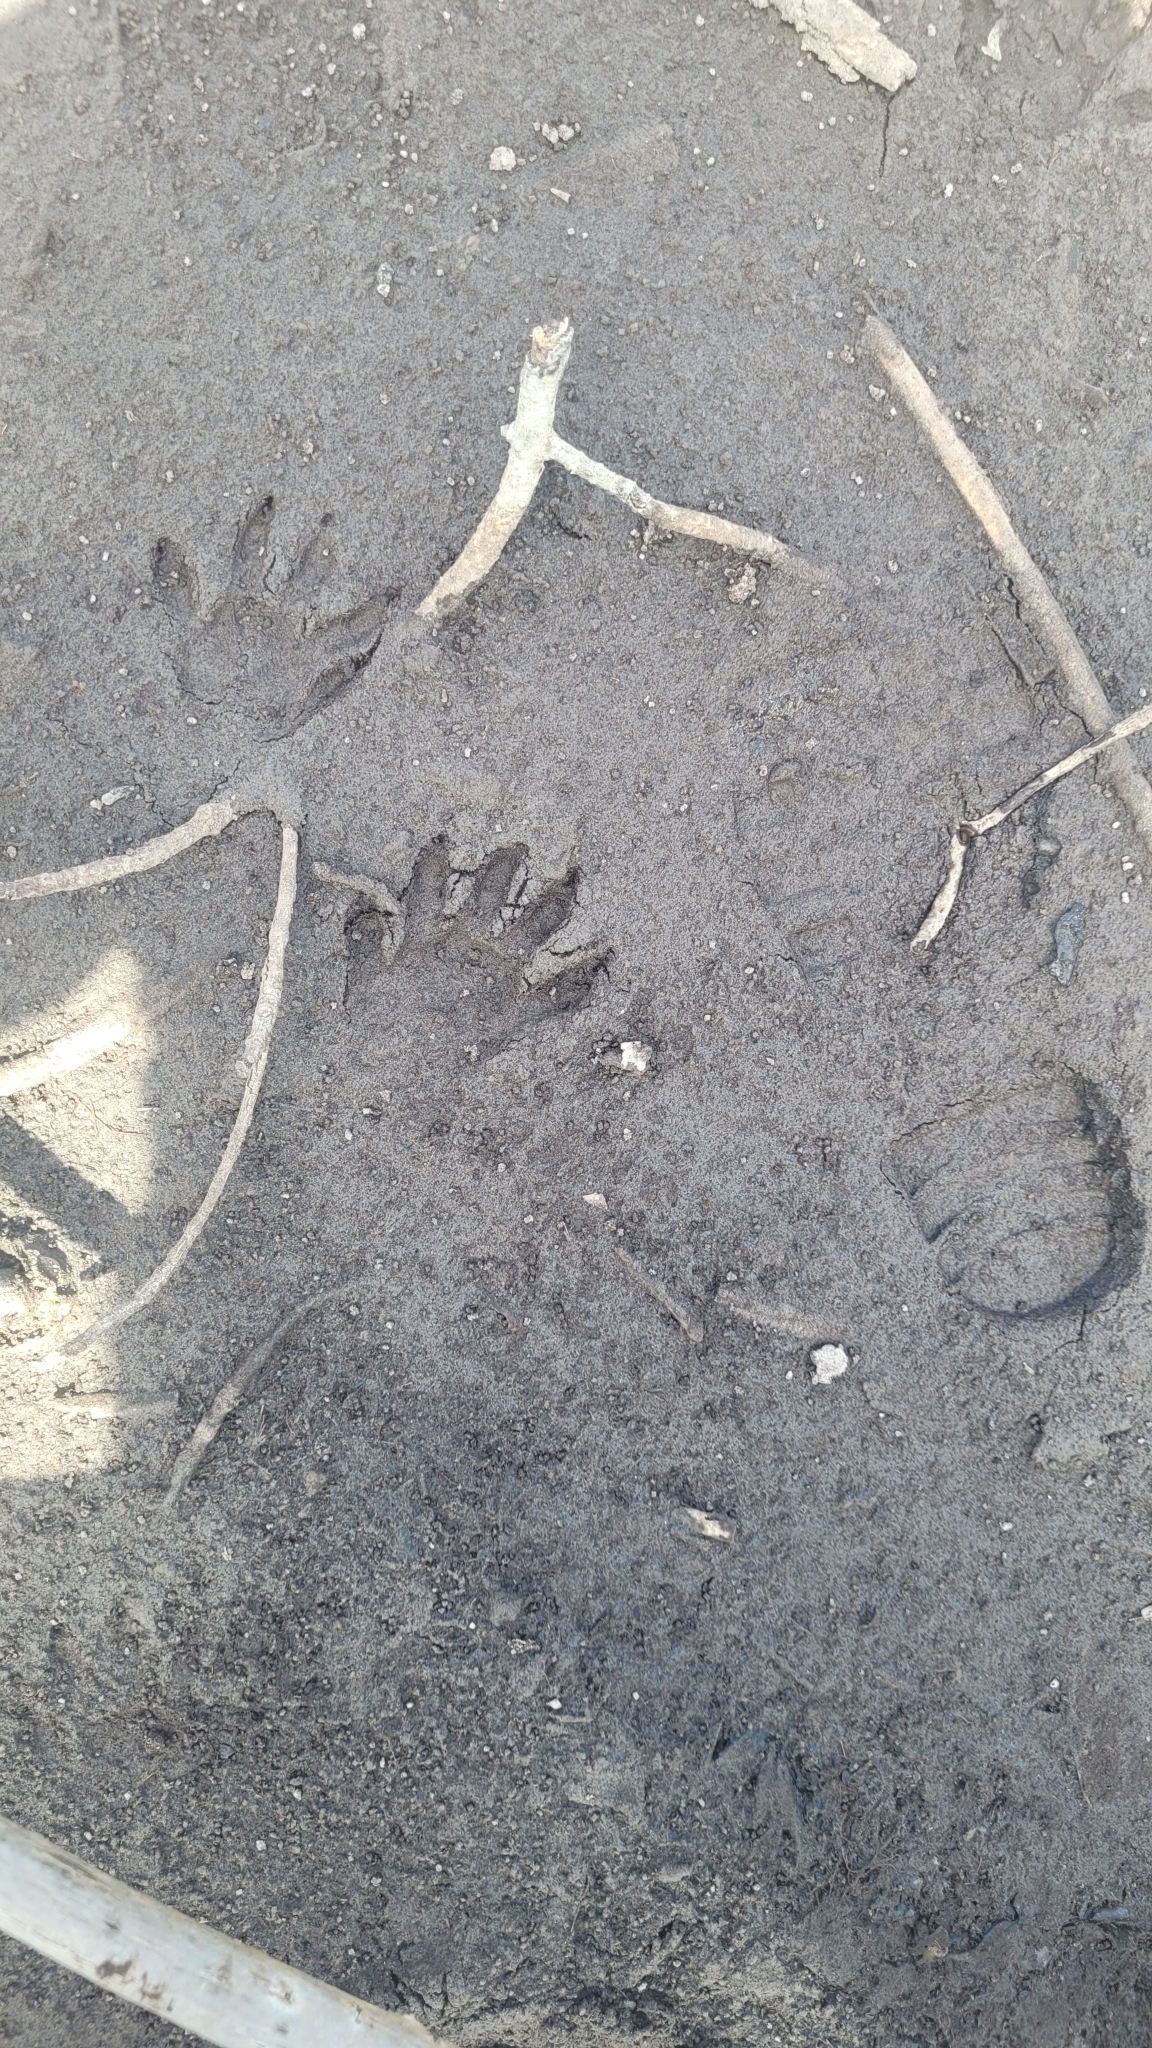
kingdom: Animalia
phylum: Chordata
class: Mammalia
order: Carnivora
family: Procyonidae
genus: Procyon
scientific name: Procyon lotor
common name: Raccoon
